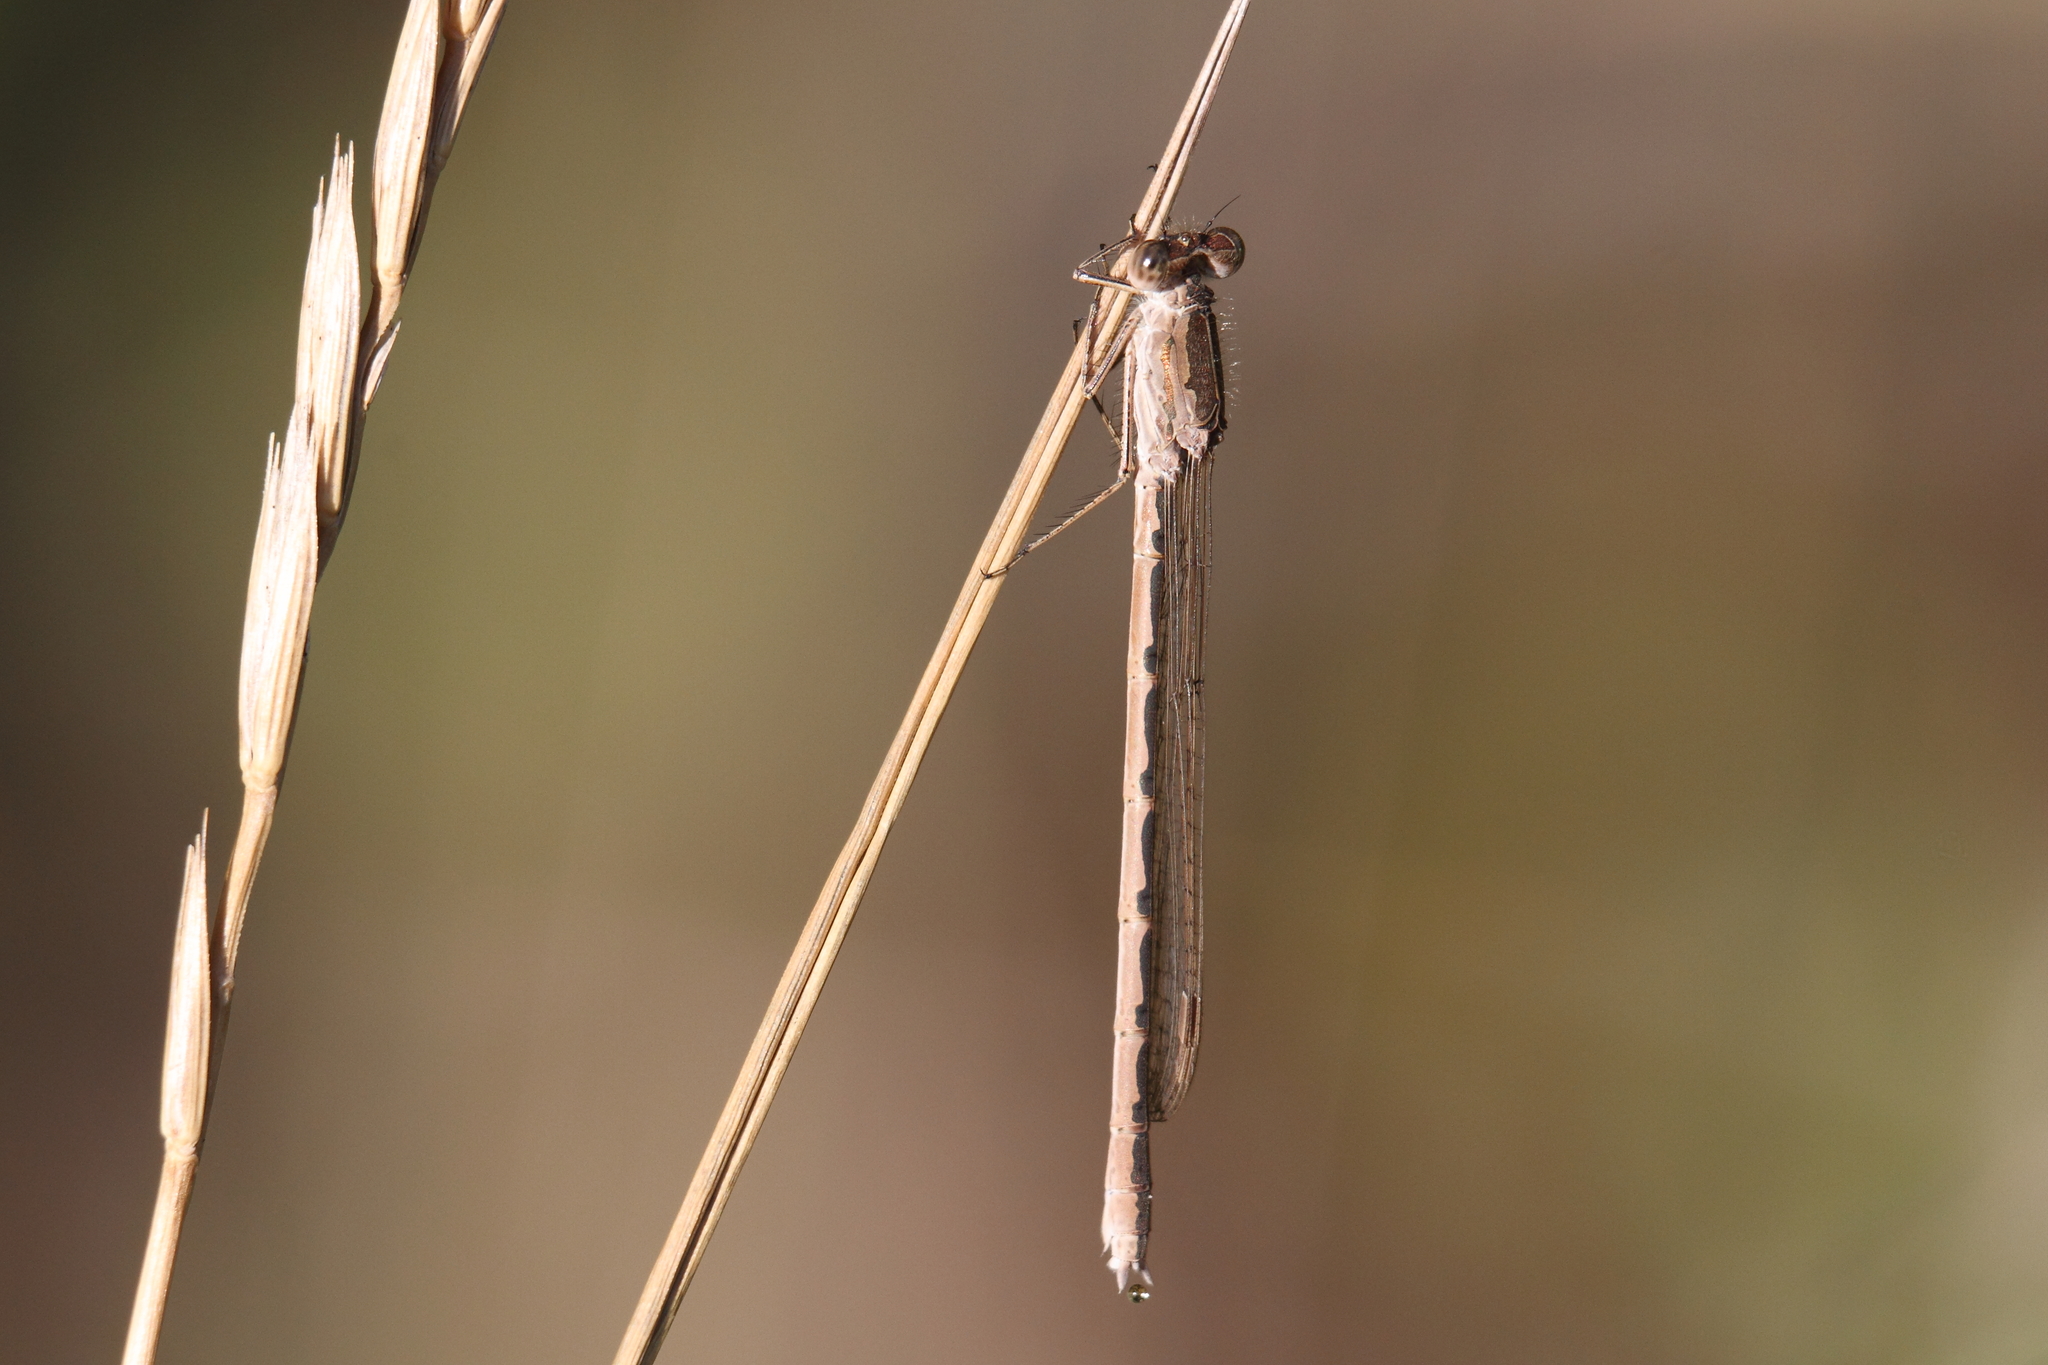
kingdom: Animalia
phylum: Arthropoda
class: Insecta
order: Odonata
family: Lestidae
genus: Sympecma
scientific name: Sympecma paedisca
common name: Siberian winter damsel
